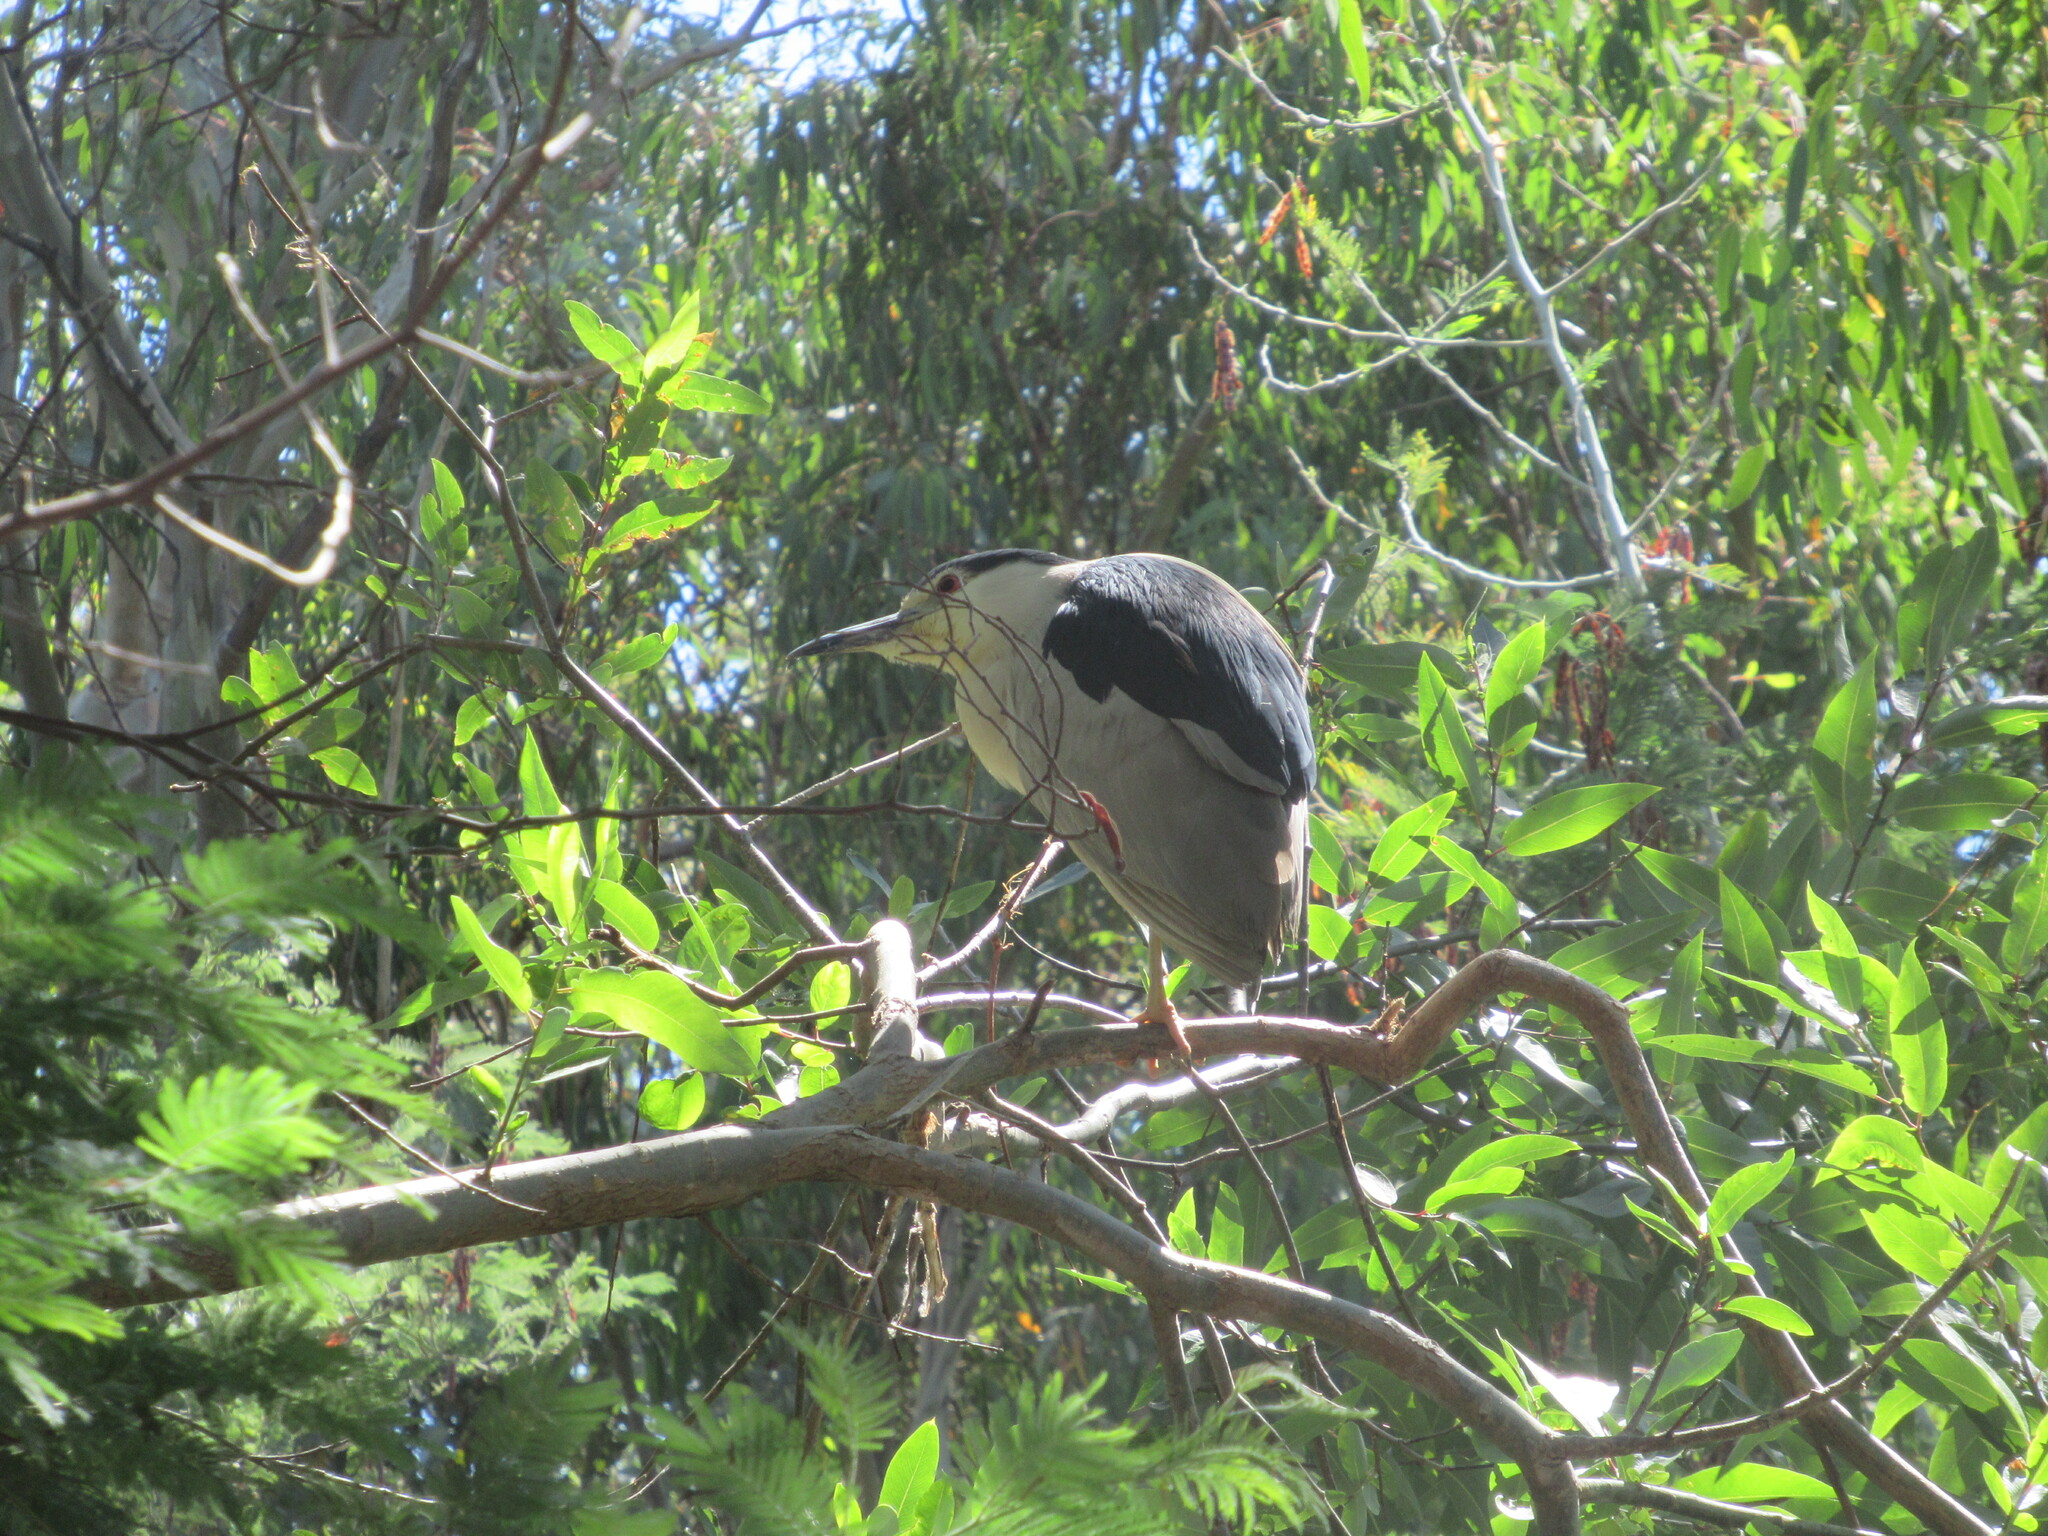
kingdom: Animalia
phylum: Chordata
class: Aves
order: Pelecaniformes
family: Ardeidae
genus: Nycticorax
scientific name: Nycticorax nycticorax
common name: Black-crowned night heron
